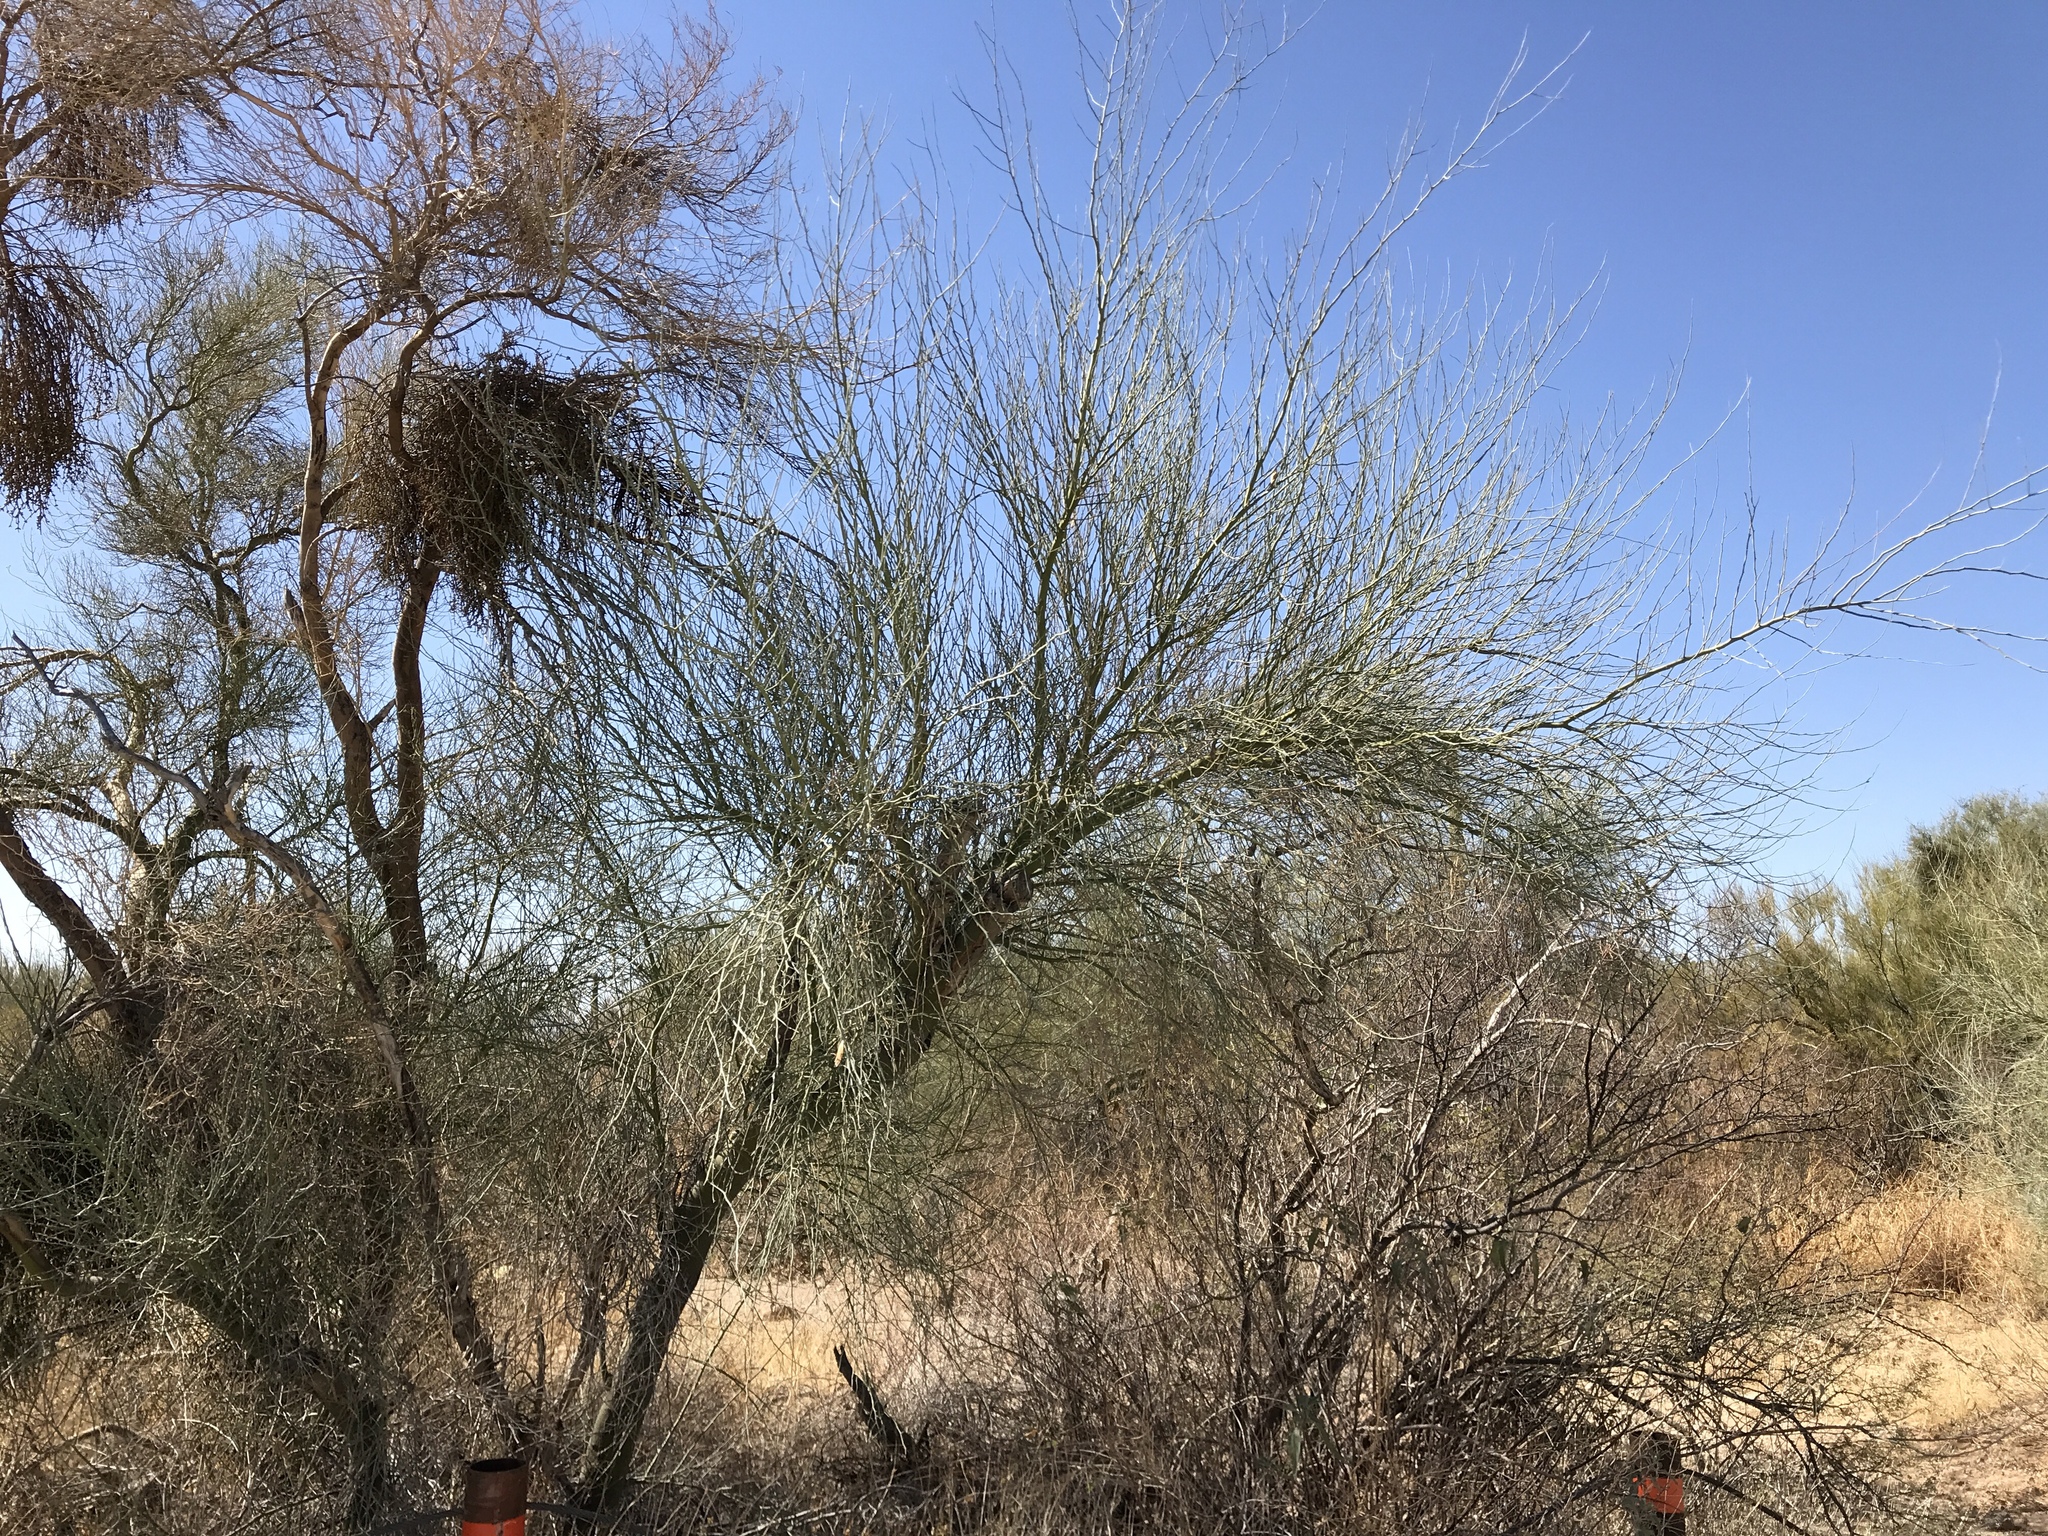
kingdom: Plantae
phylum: Tracheophyta
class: Magnoliopsida
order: Fabales
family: Fabaceae
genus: Parkinsonia
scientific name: Parkinsonia florida
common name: Blue paloverde
